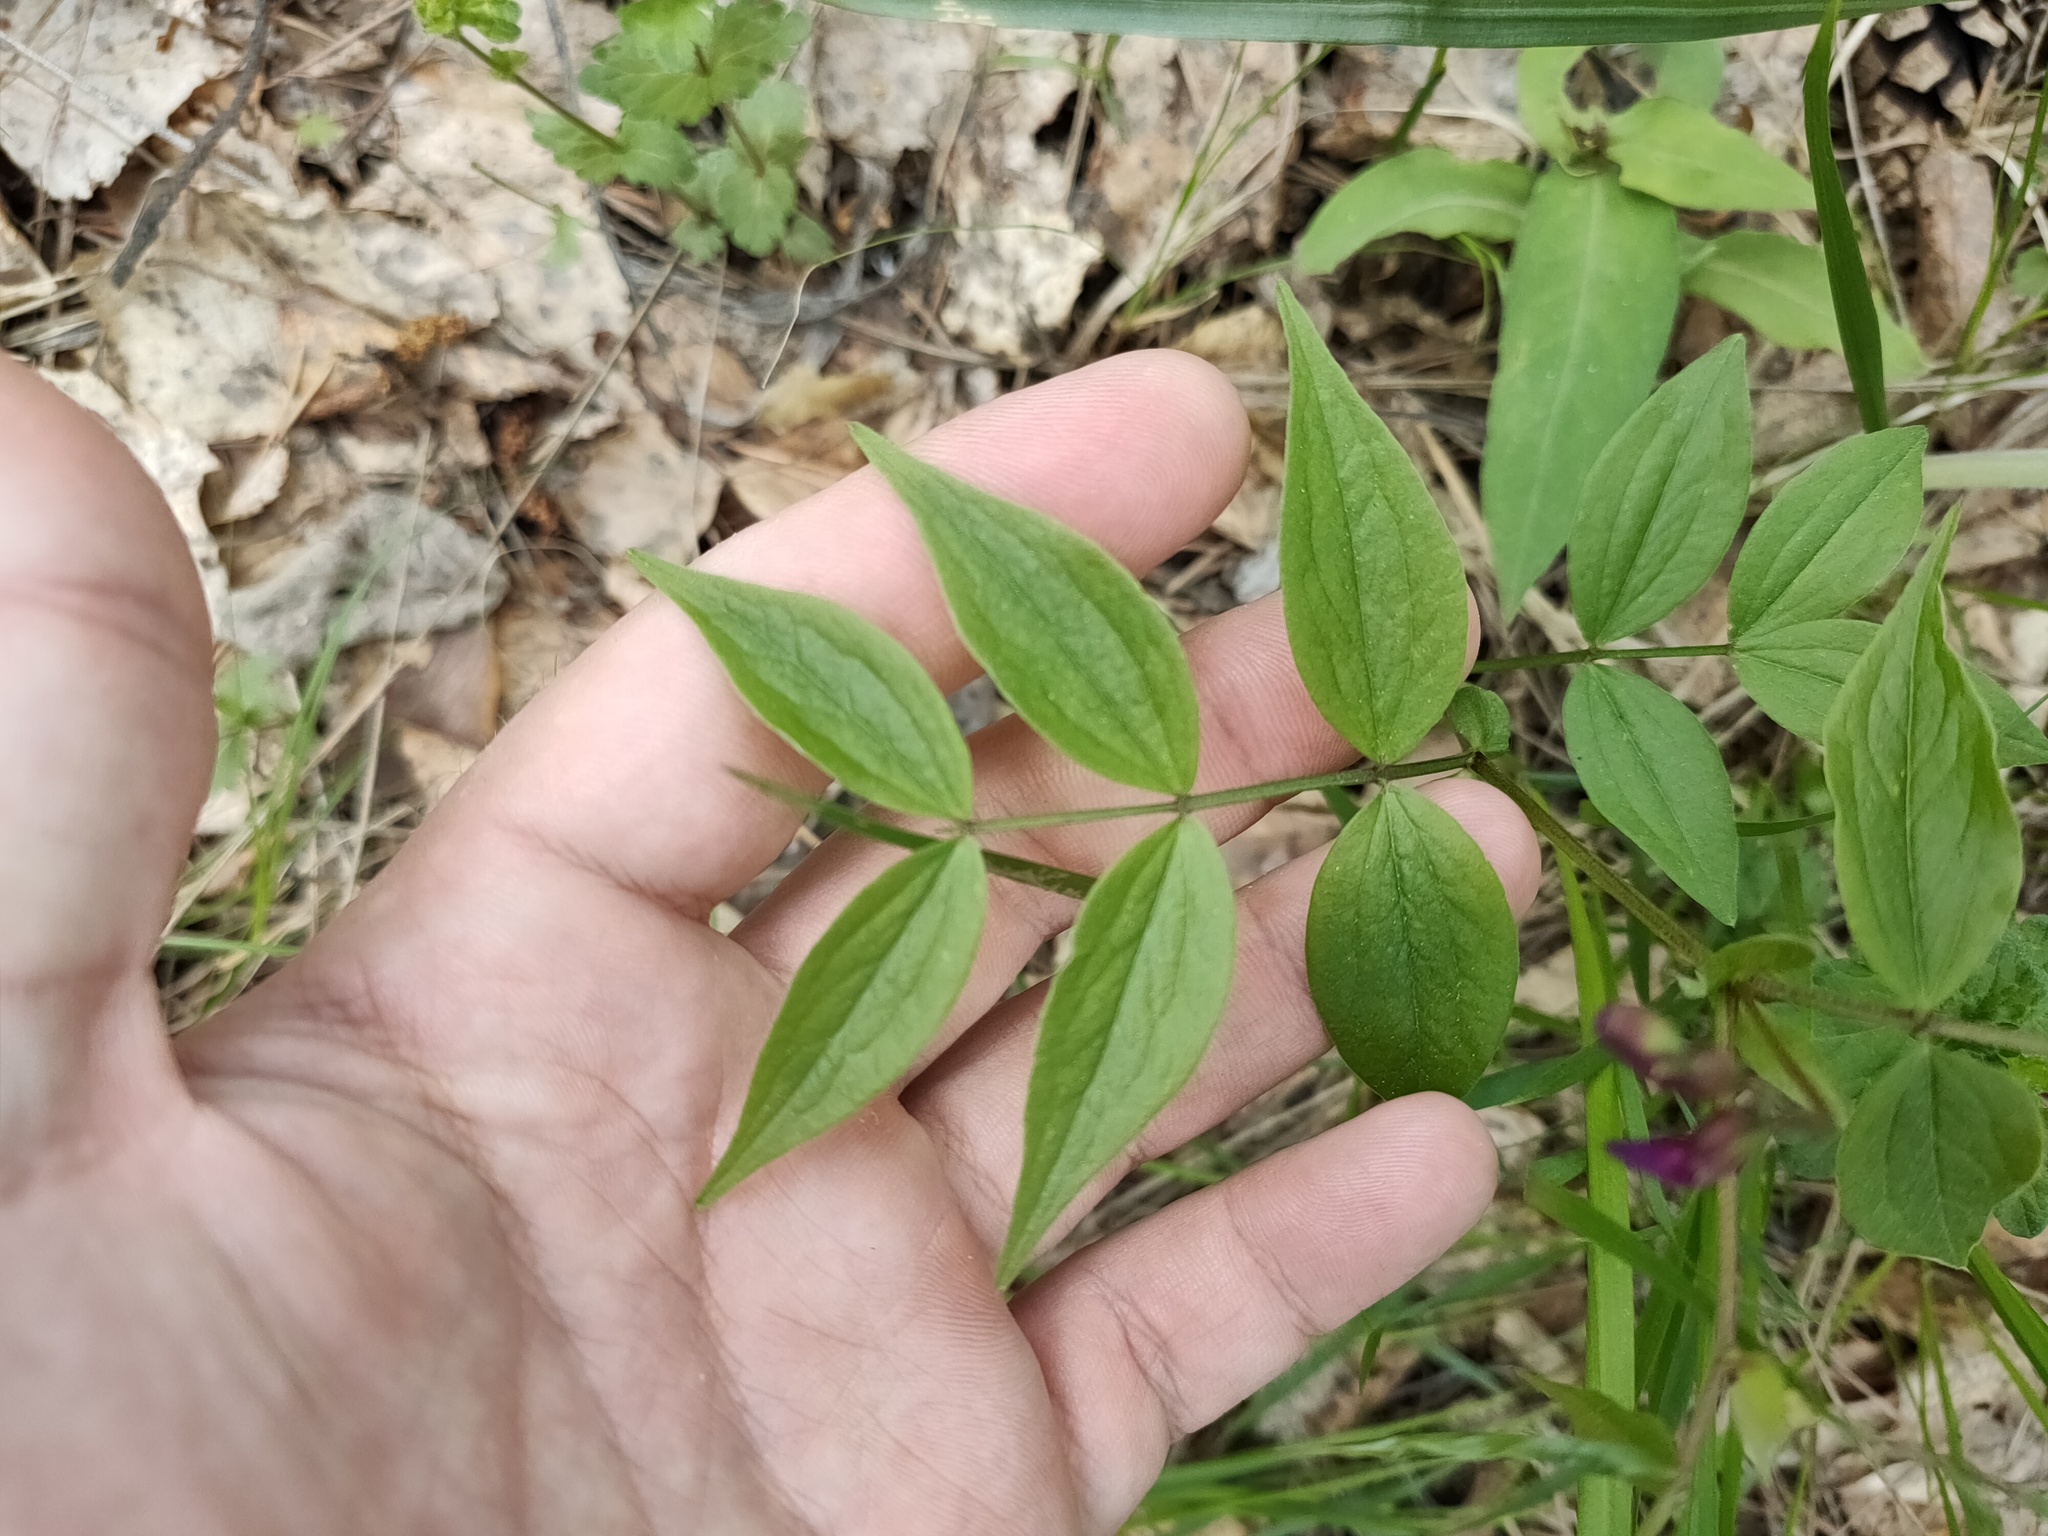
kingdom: Plantae
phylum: Tracheophyta
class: Magnoliopsida
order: Fabales
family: Fabaceae
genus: Lathyrus
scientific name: Lathyrus vernus
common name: Spring pea
